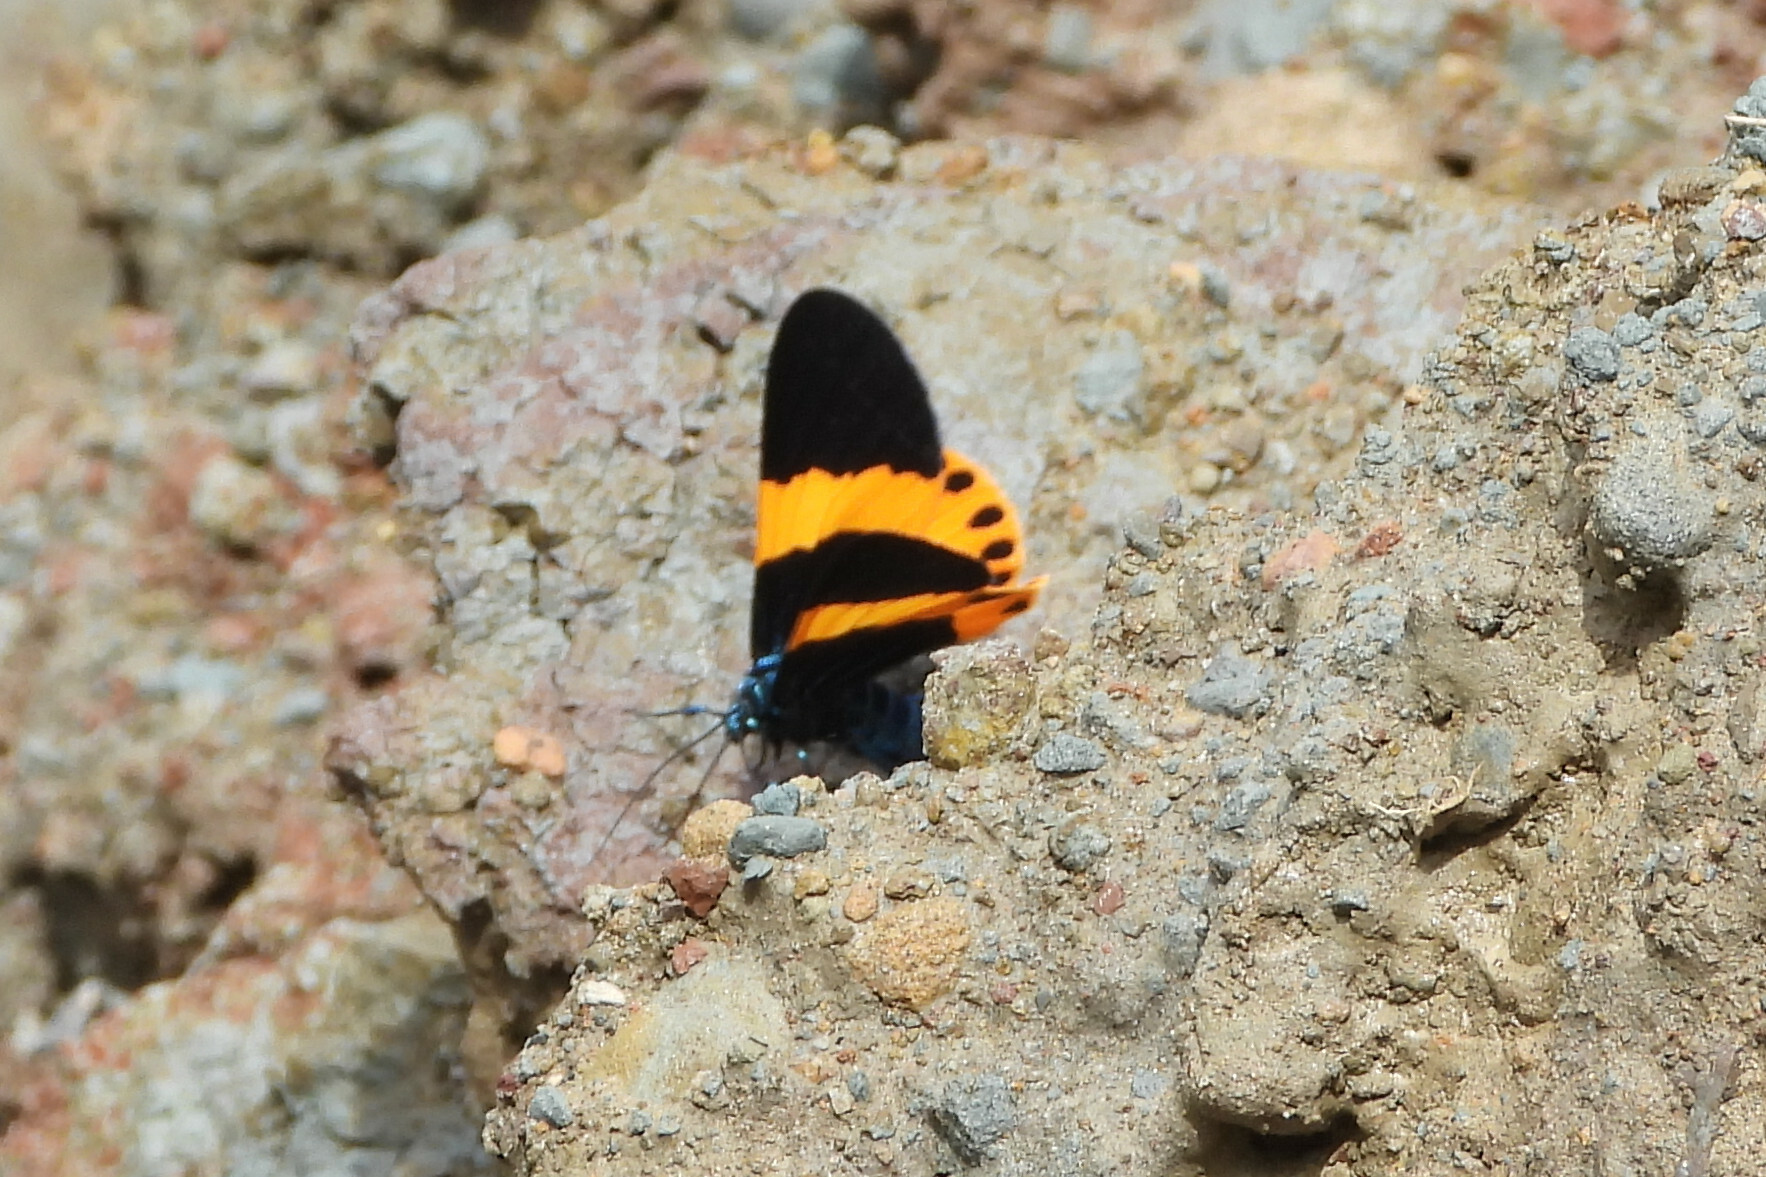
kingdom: Animalia
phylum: Arthropoda
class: Insecta
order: Lepidoptera
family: Geometridae
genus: Milionia
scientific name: Milionia basalis
